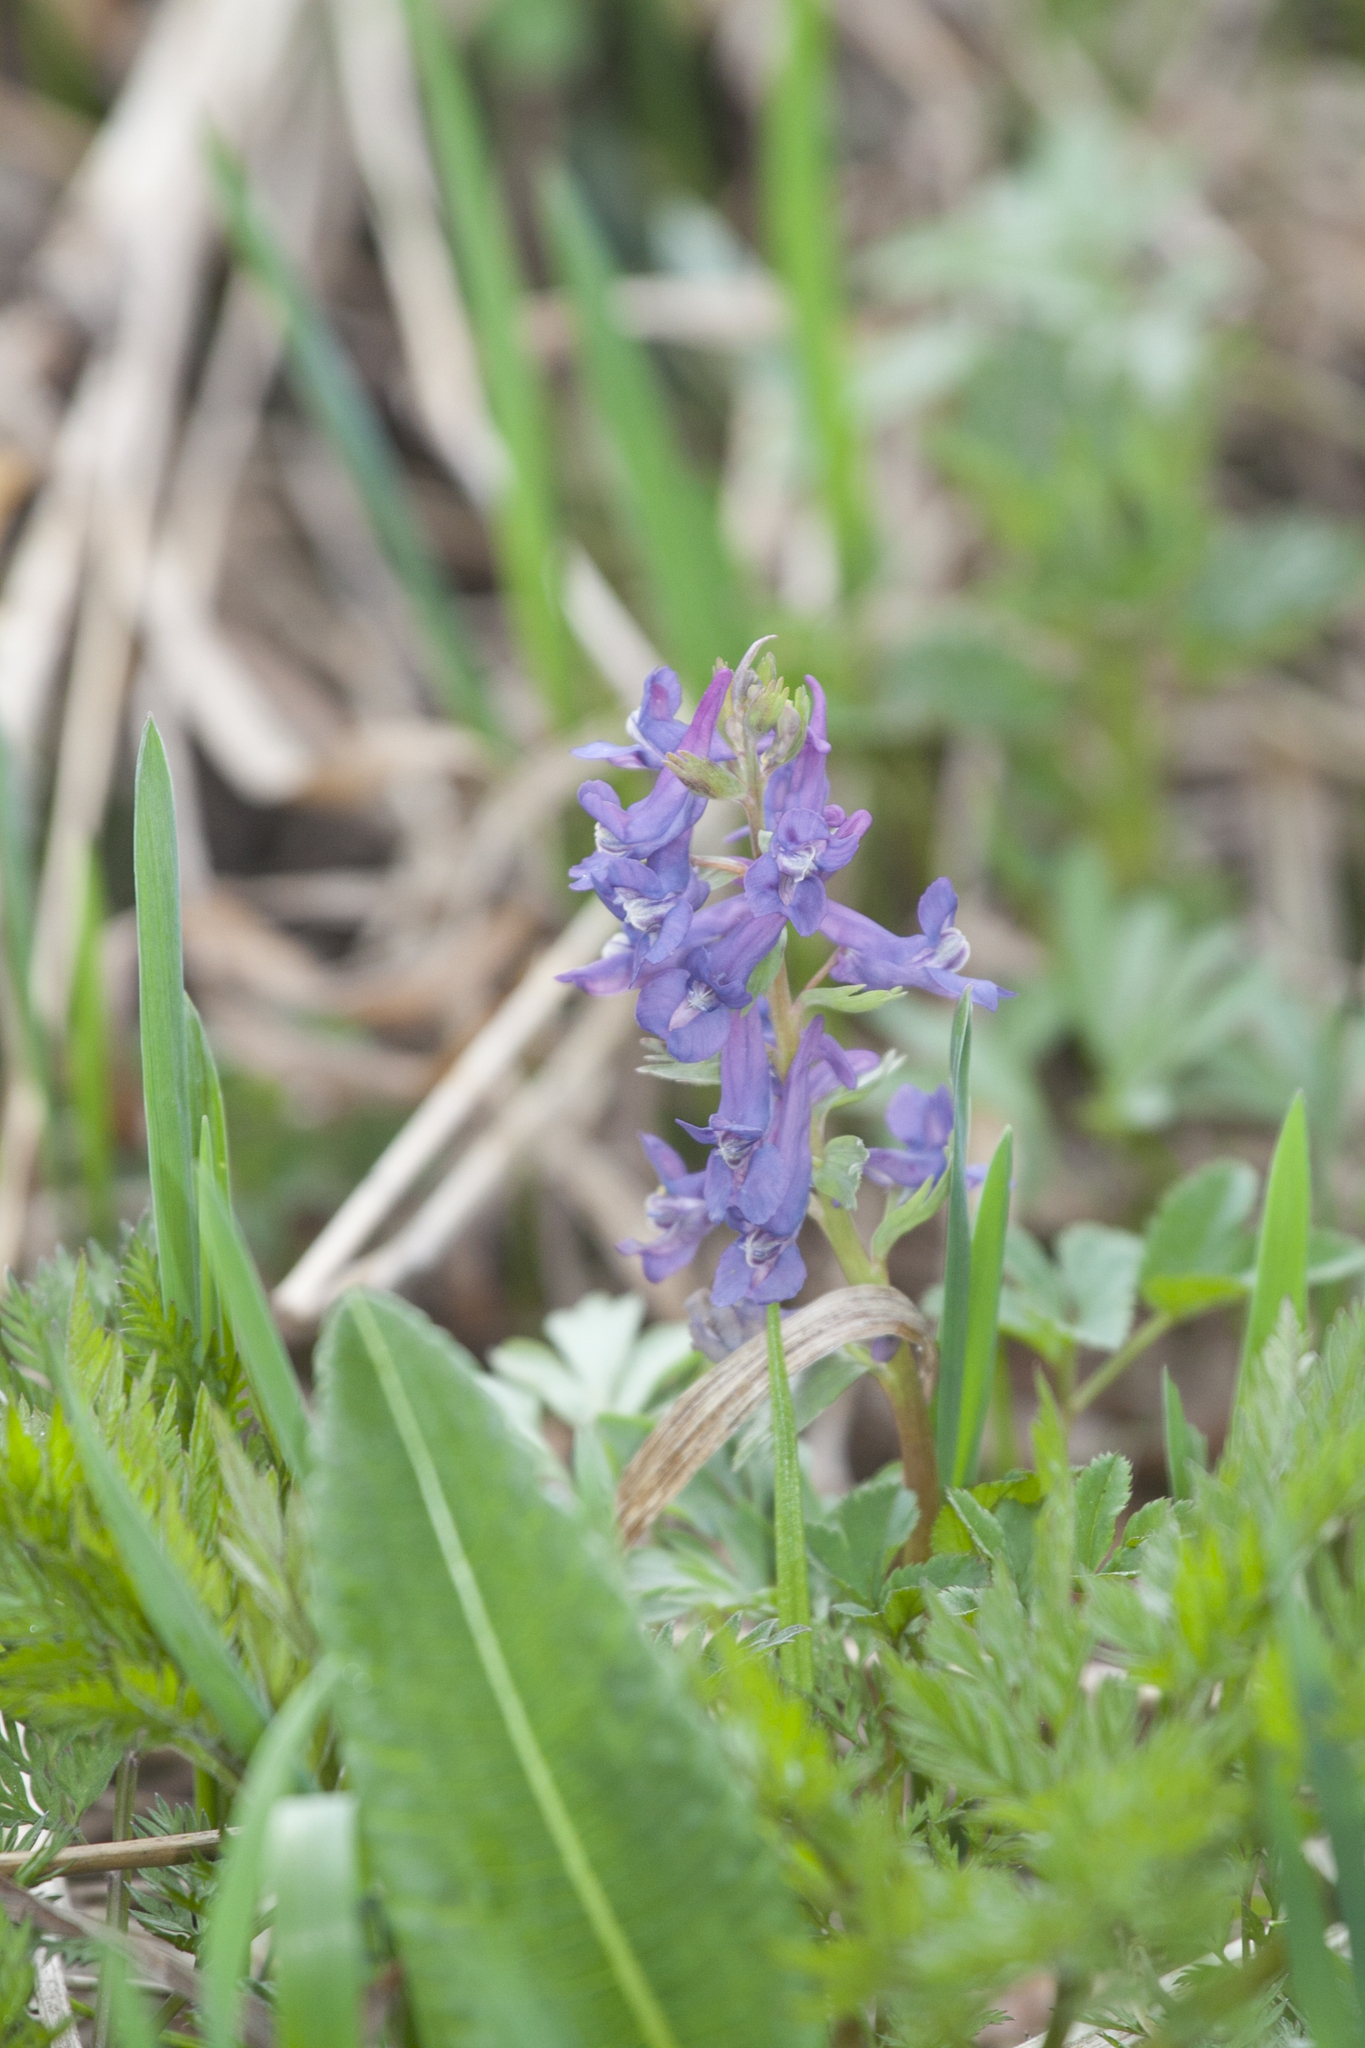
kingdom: Plantae
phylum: Tracheophyta
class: Magnoliopsida
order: Ranunculales
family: Papaveraceae
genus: Corydalis
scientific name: Corydalis solida
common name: Bird-in-a-bush
